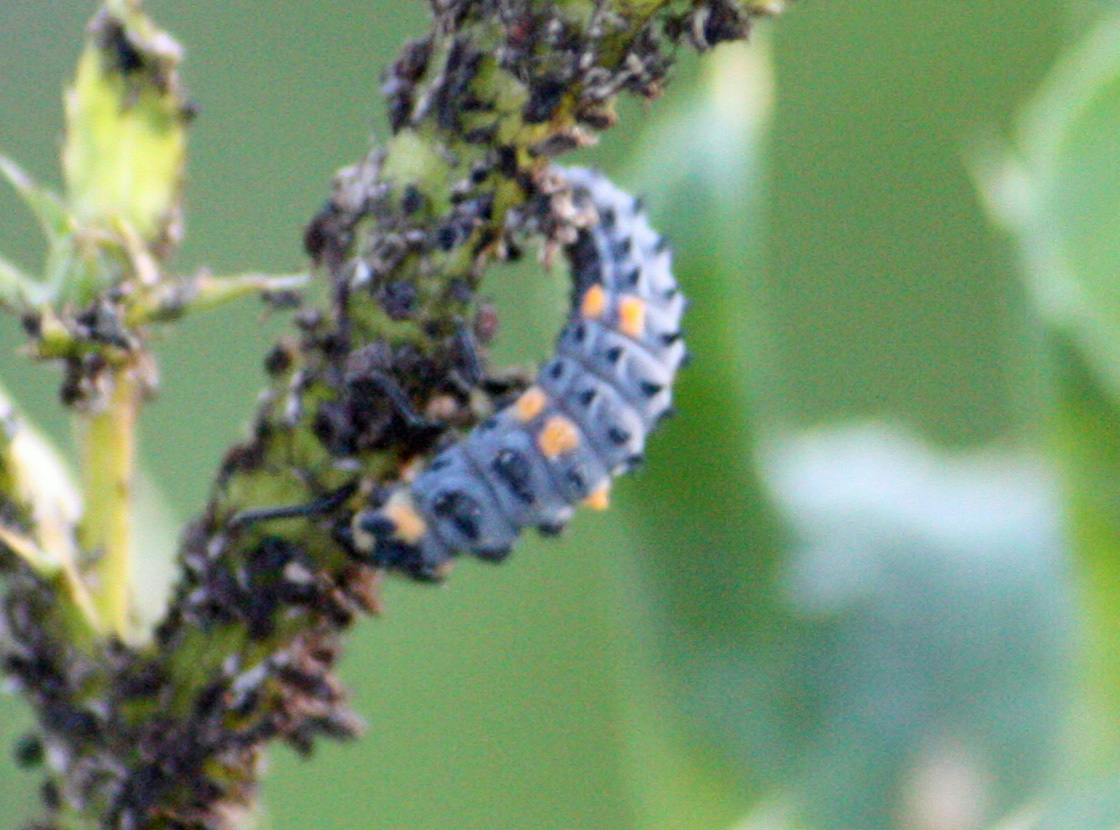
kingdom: Animalia
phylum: Arthropoda
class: Insecta
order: Coleoptera
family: Coccinellidae
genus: Coccinella
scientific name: Coccinella septempunctata
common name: Sevenspotted lady beetle
